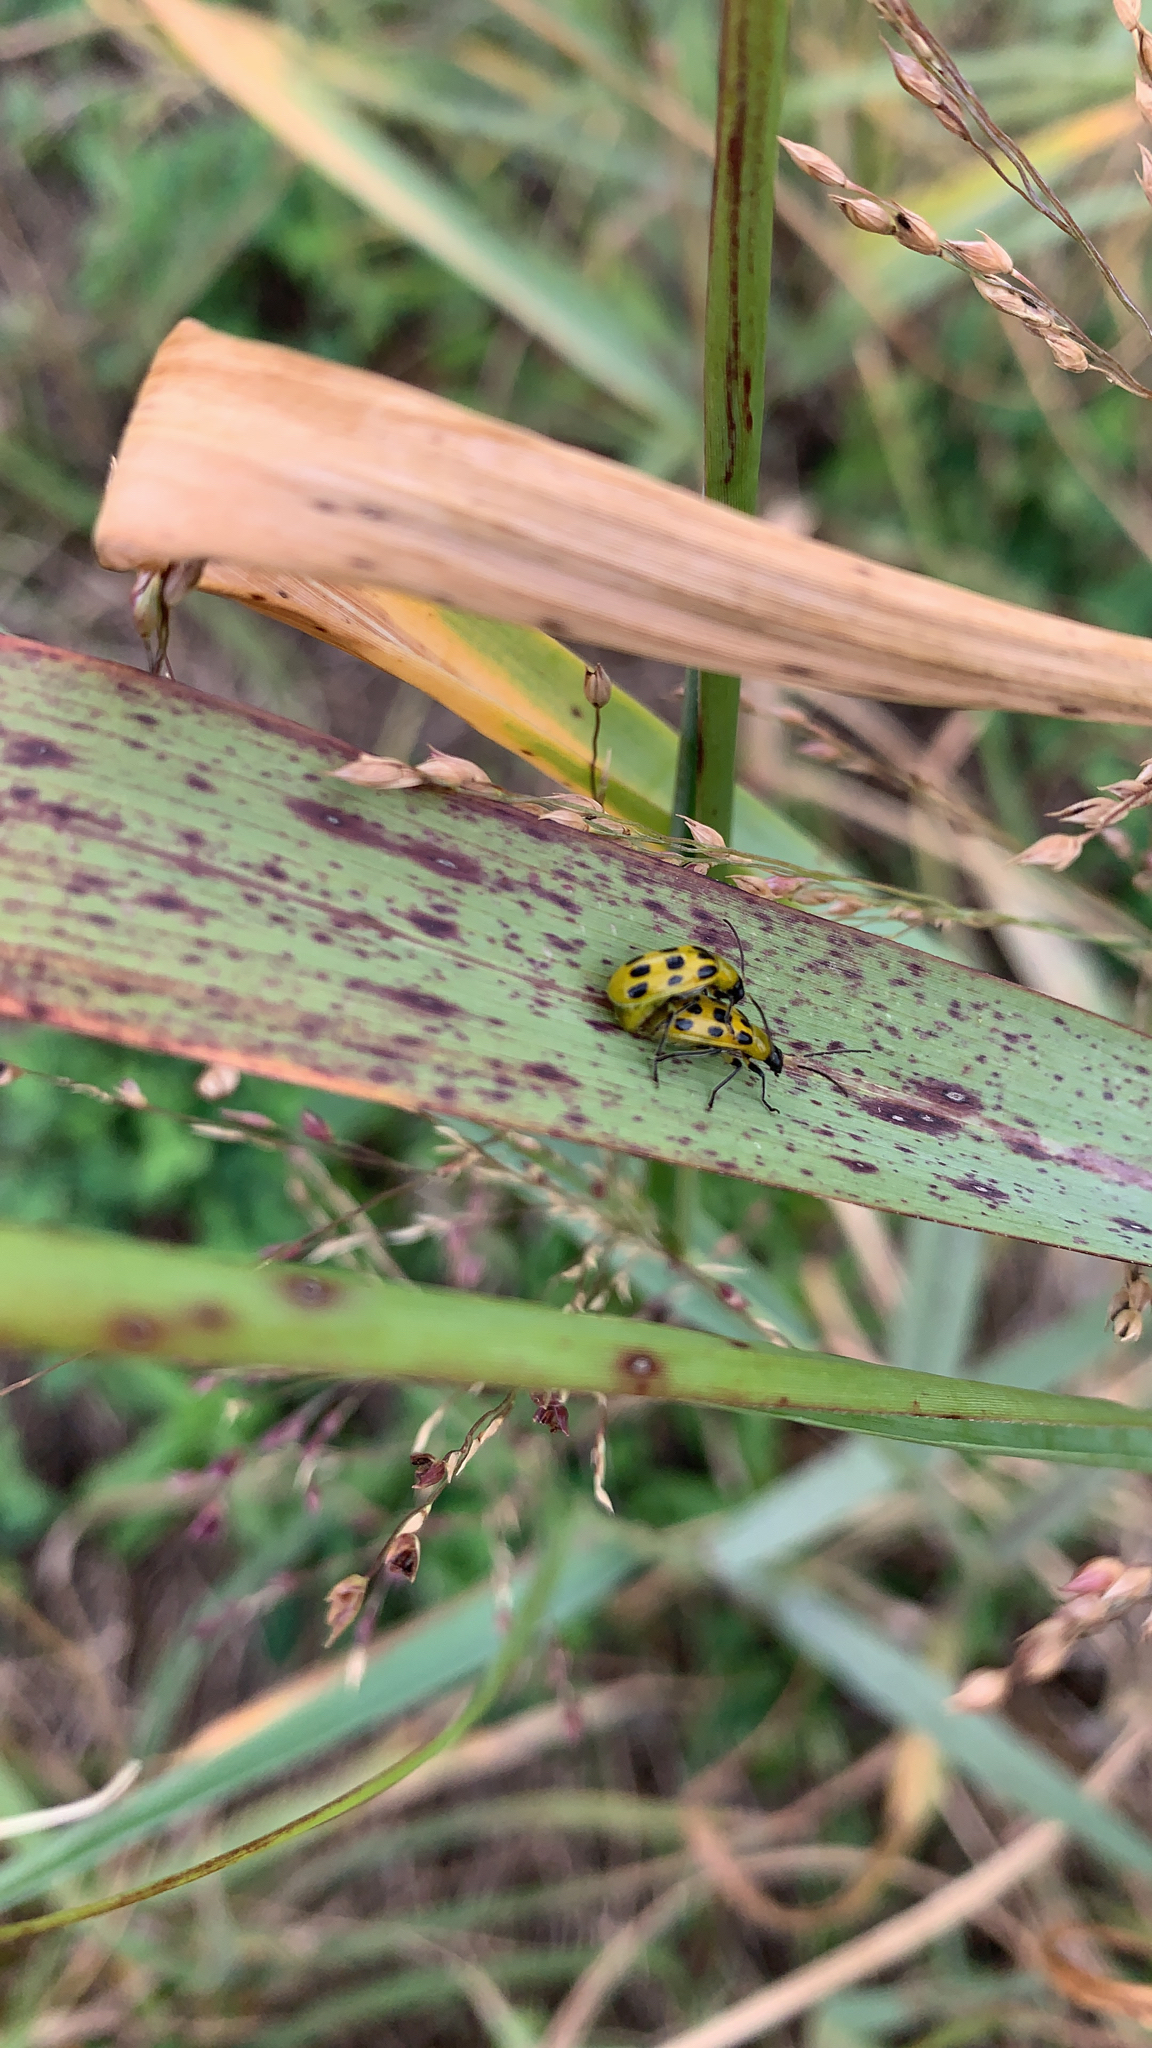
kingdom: Animalia
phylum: Arthropoda
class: Insecta
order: Coleoptera
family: Chrysomelidae
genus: Diabrotica
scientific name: Diabrotica undecimpunctata
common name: Spotted cucumber beetle
